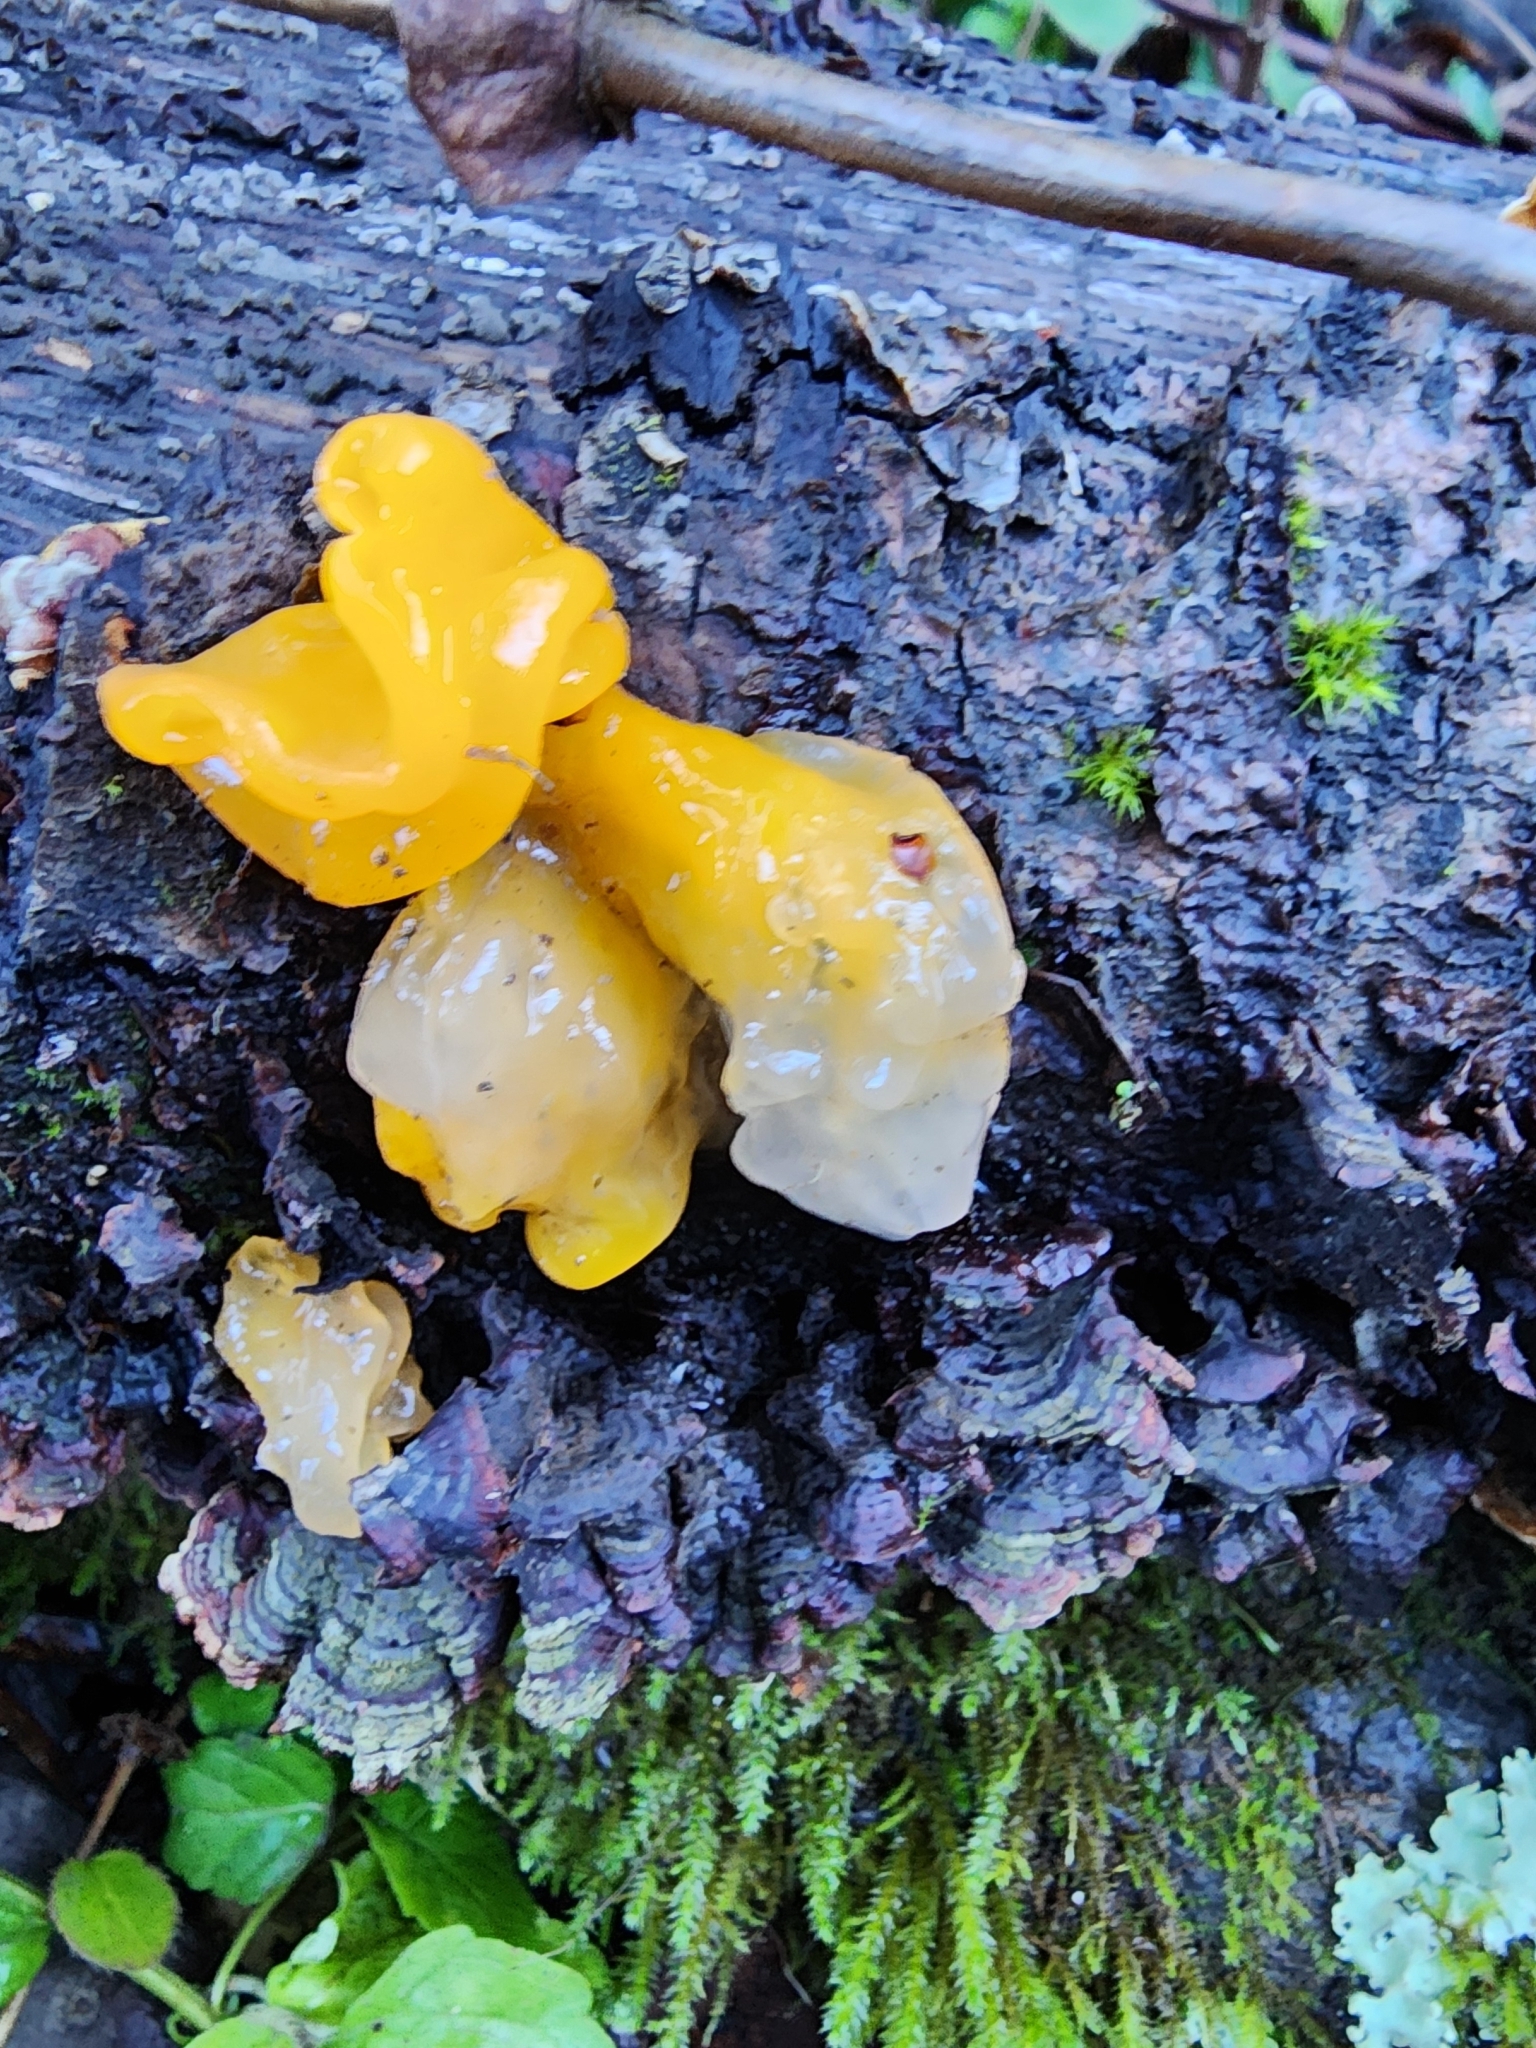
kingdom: Fungi
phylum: Basidiomycota
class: Tremellomycetes
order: Tremellales
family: Naemateliaceae
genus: Naematelia
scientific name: Naematelia aurantia
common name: Golden ear
